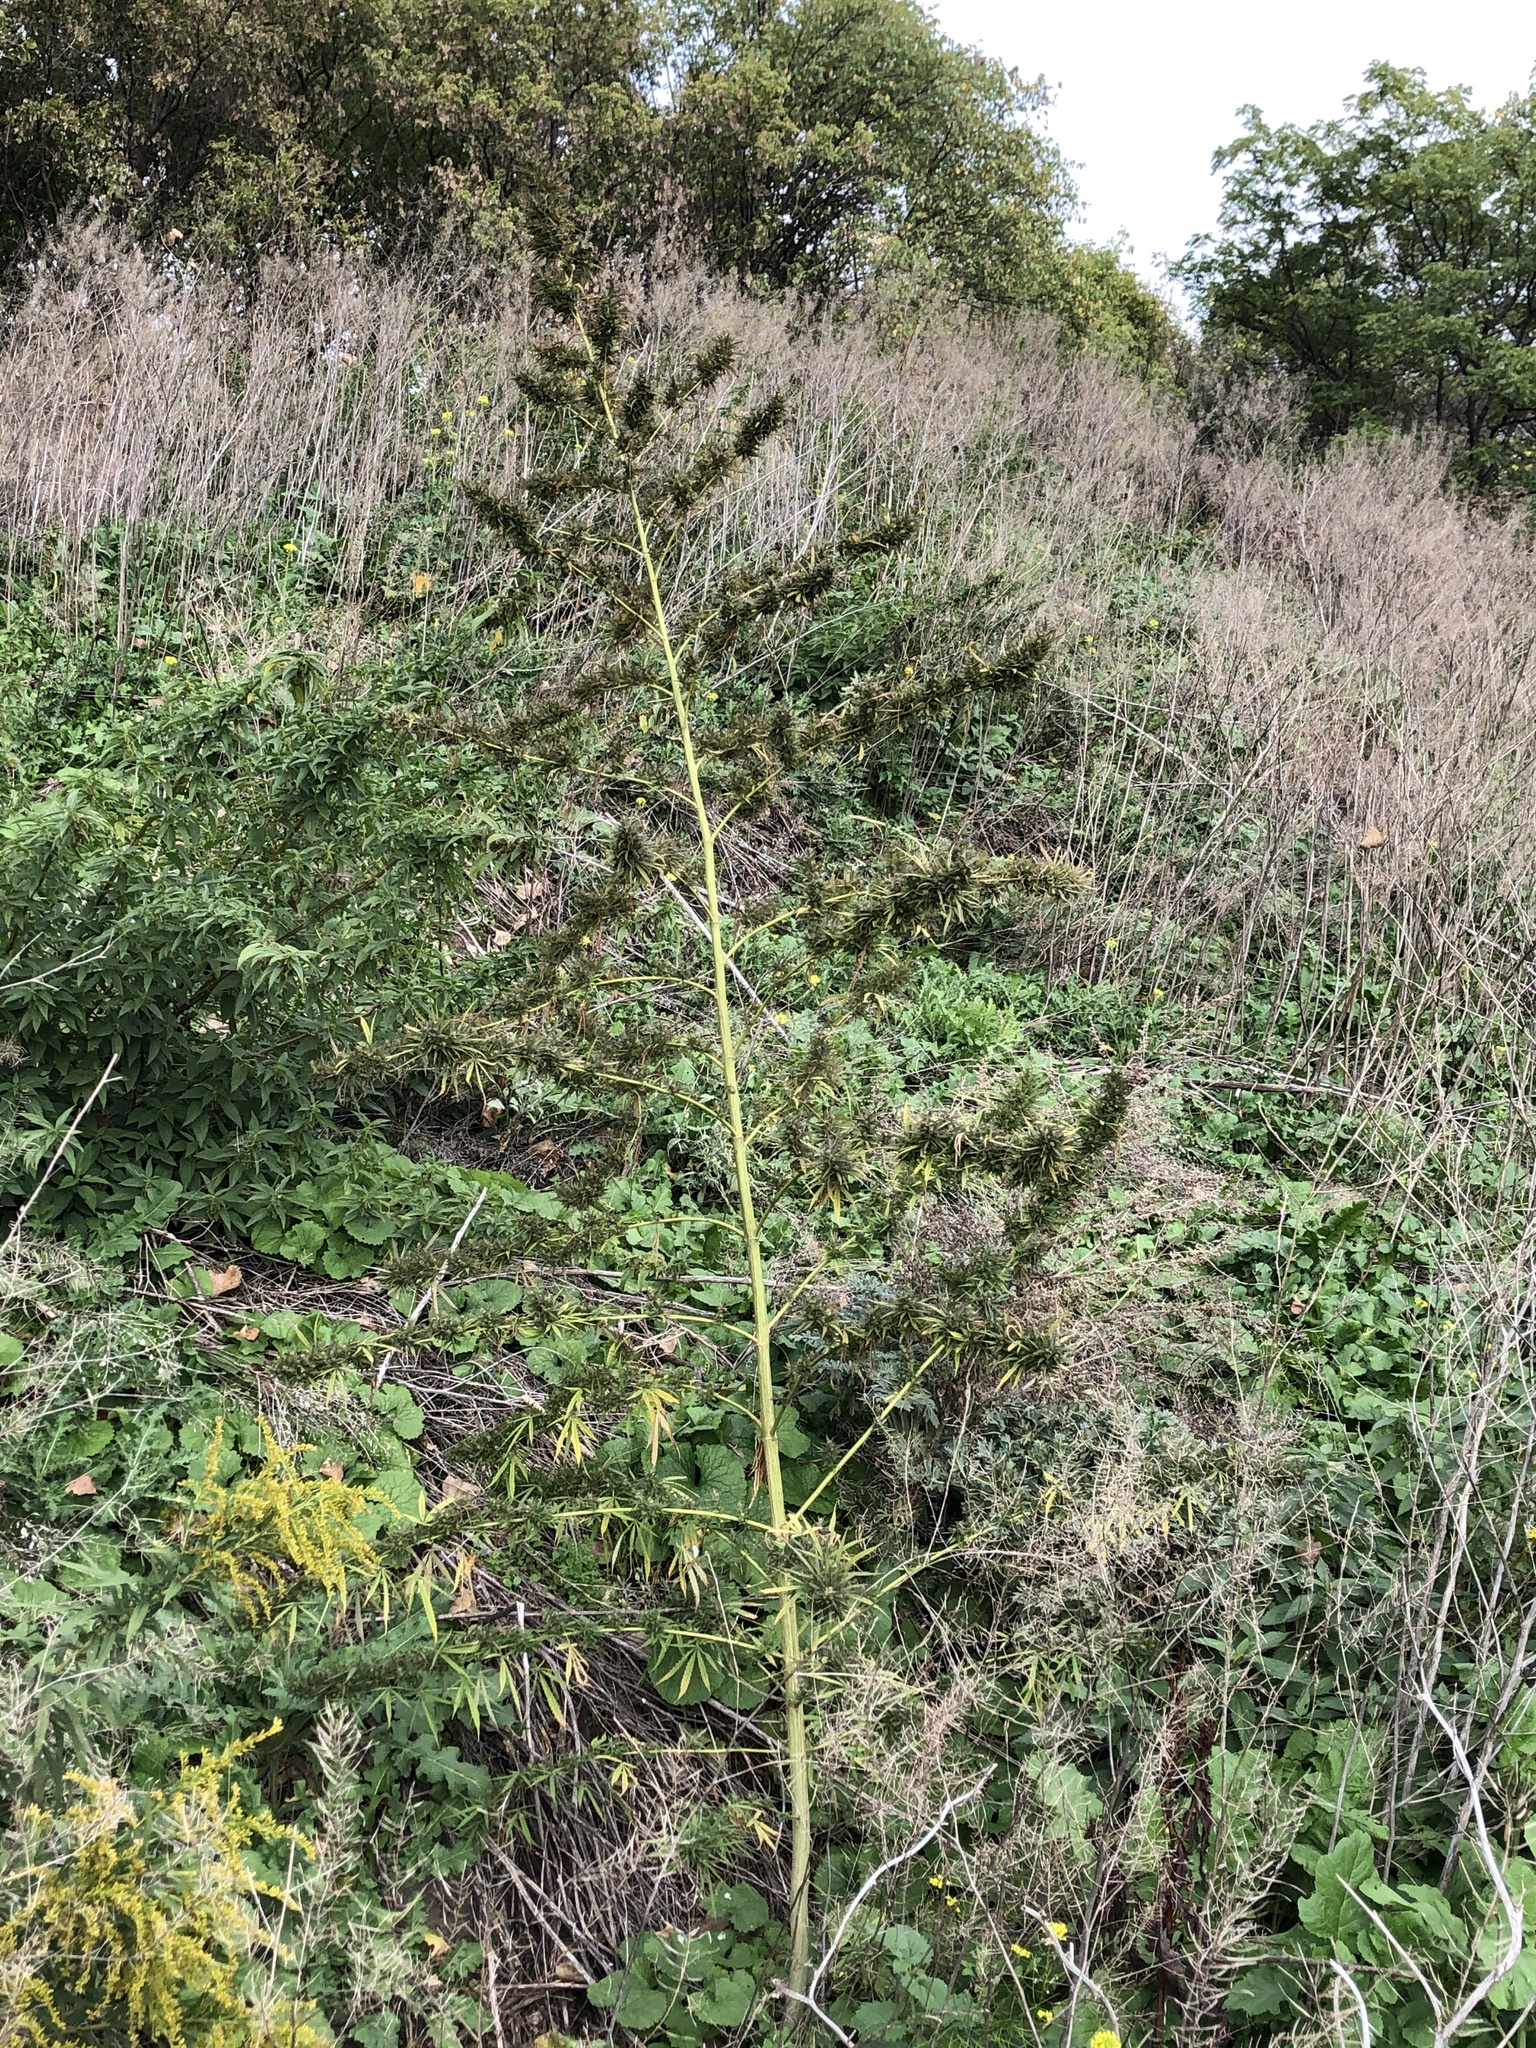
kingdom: Plantae
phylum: Tracheophyta
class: Magnoliopsida
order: Rosales
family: Cannabaceae
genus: Cannabis
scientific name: Cannabis sativa
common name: Hemp
